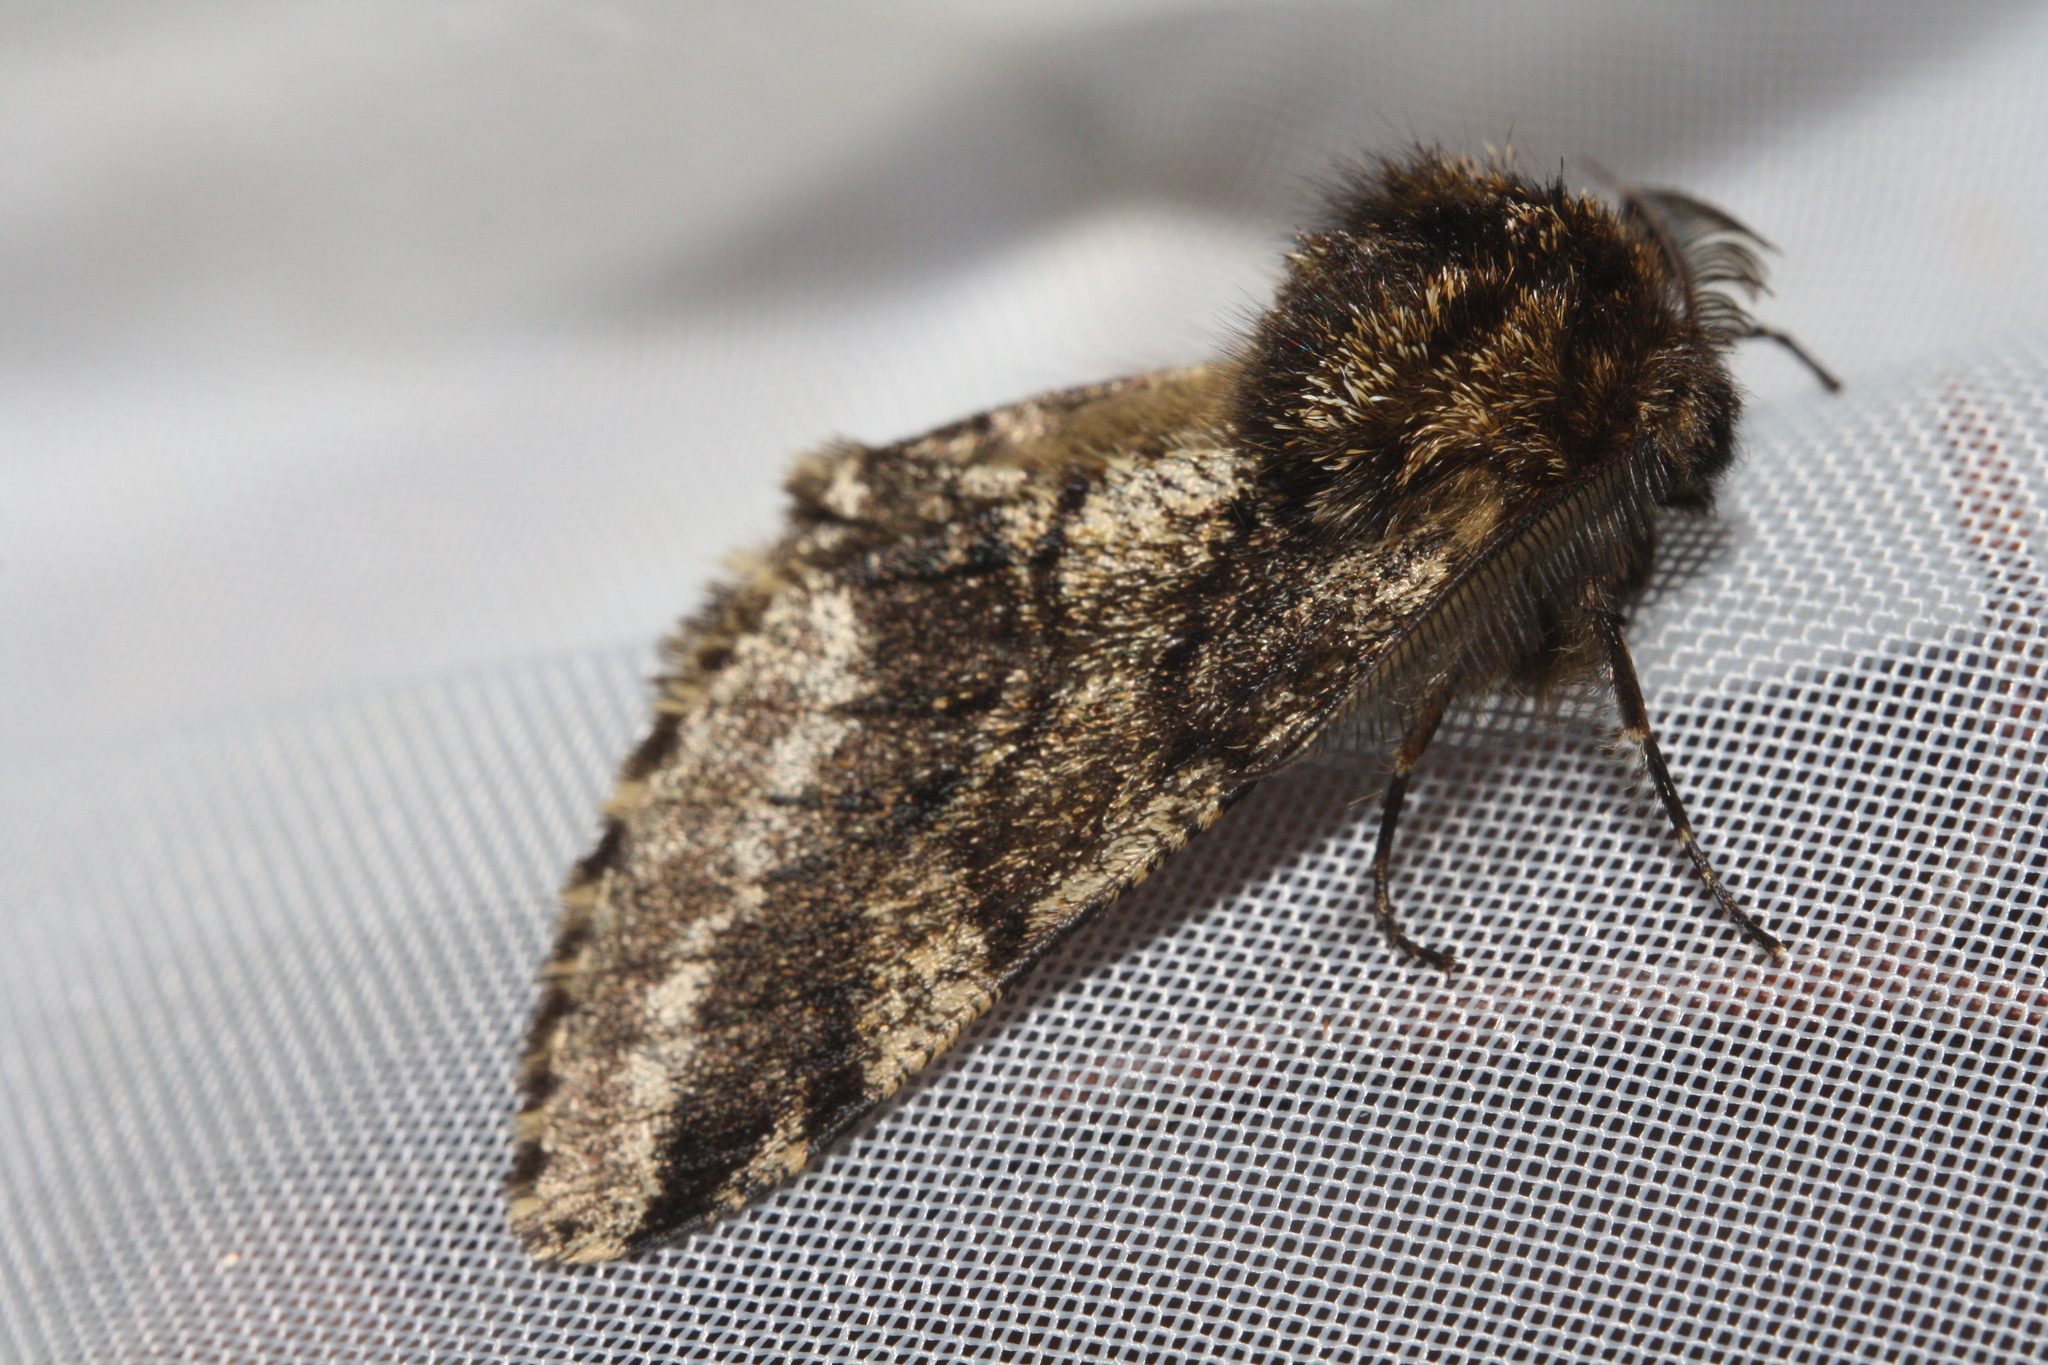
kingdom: Animalia
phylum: Arthropoda
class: Insecta
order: Lepidoptera
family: Geometridae
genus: Lycia
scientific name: Lycia hirtaria
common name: Brindled beauty
